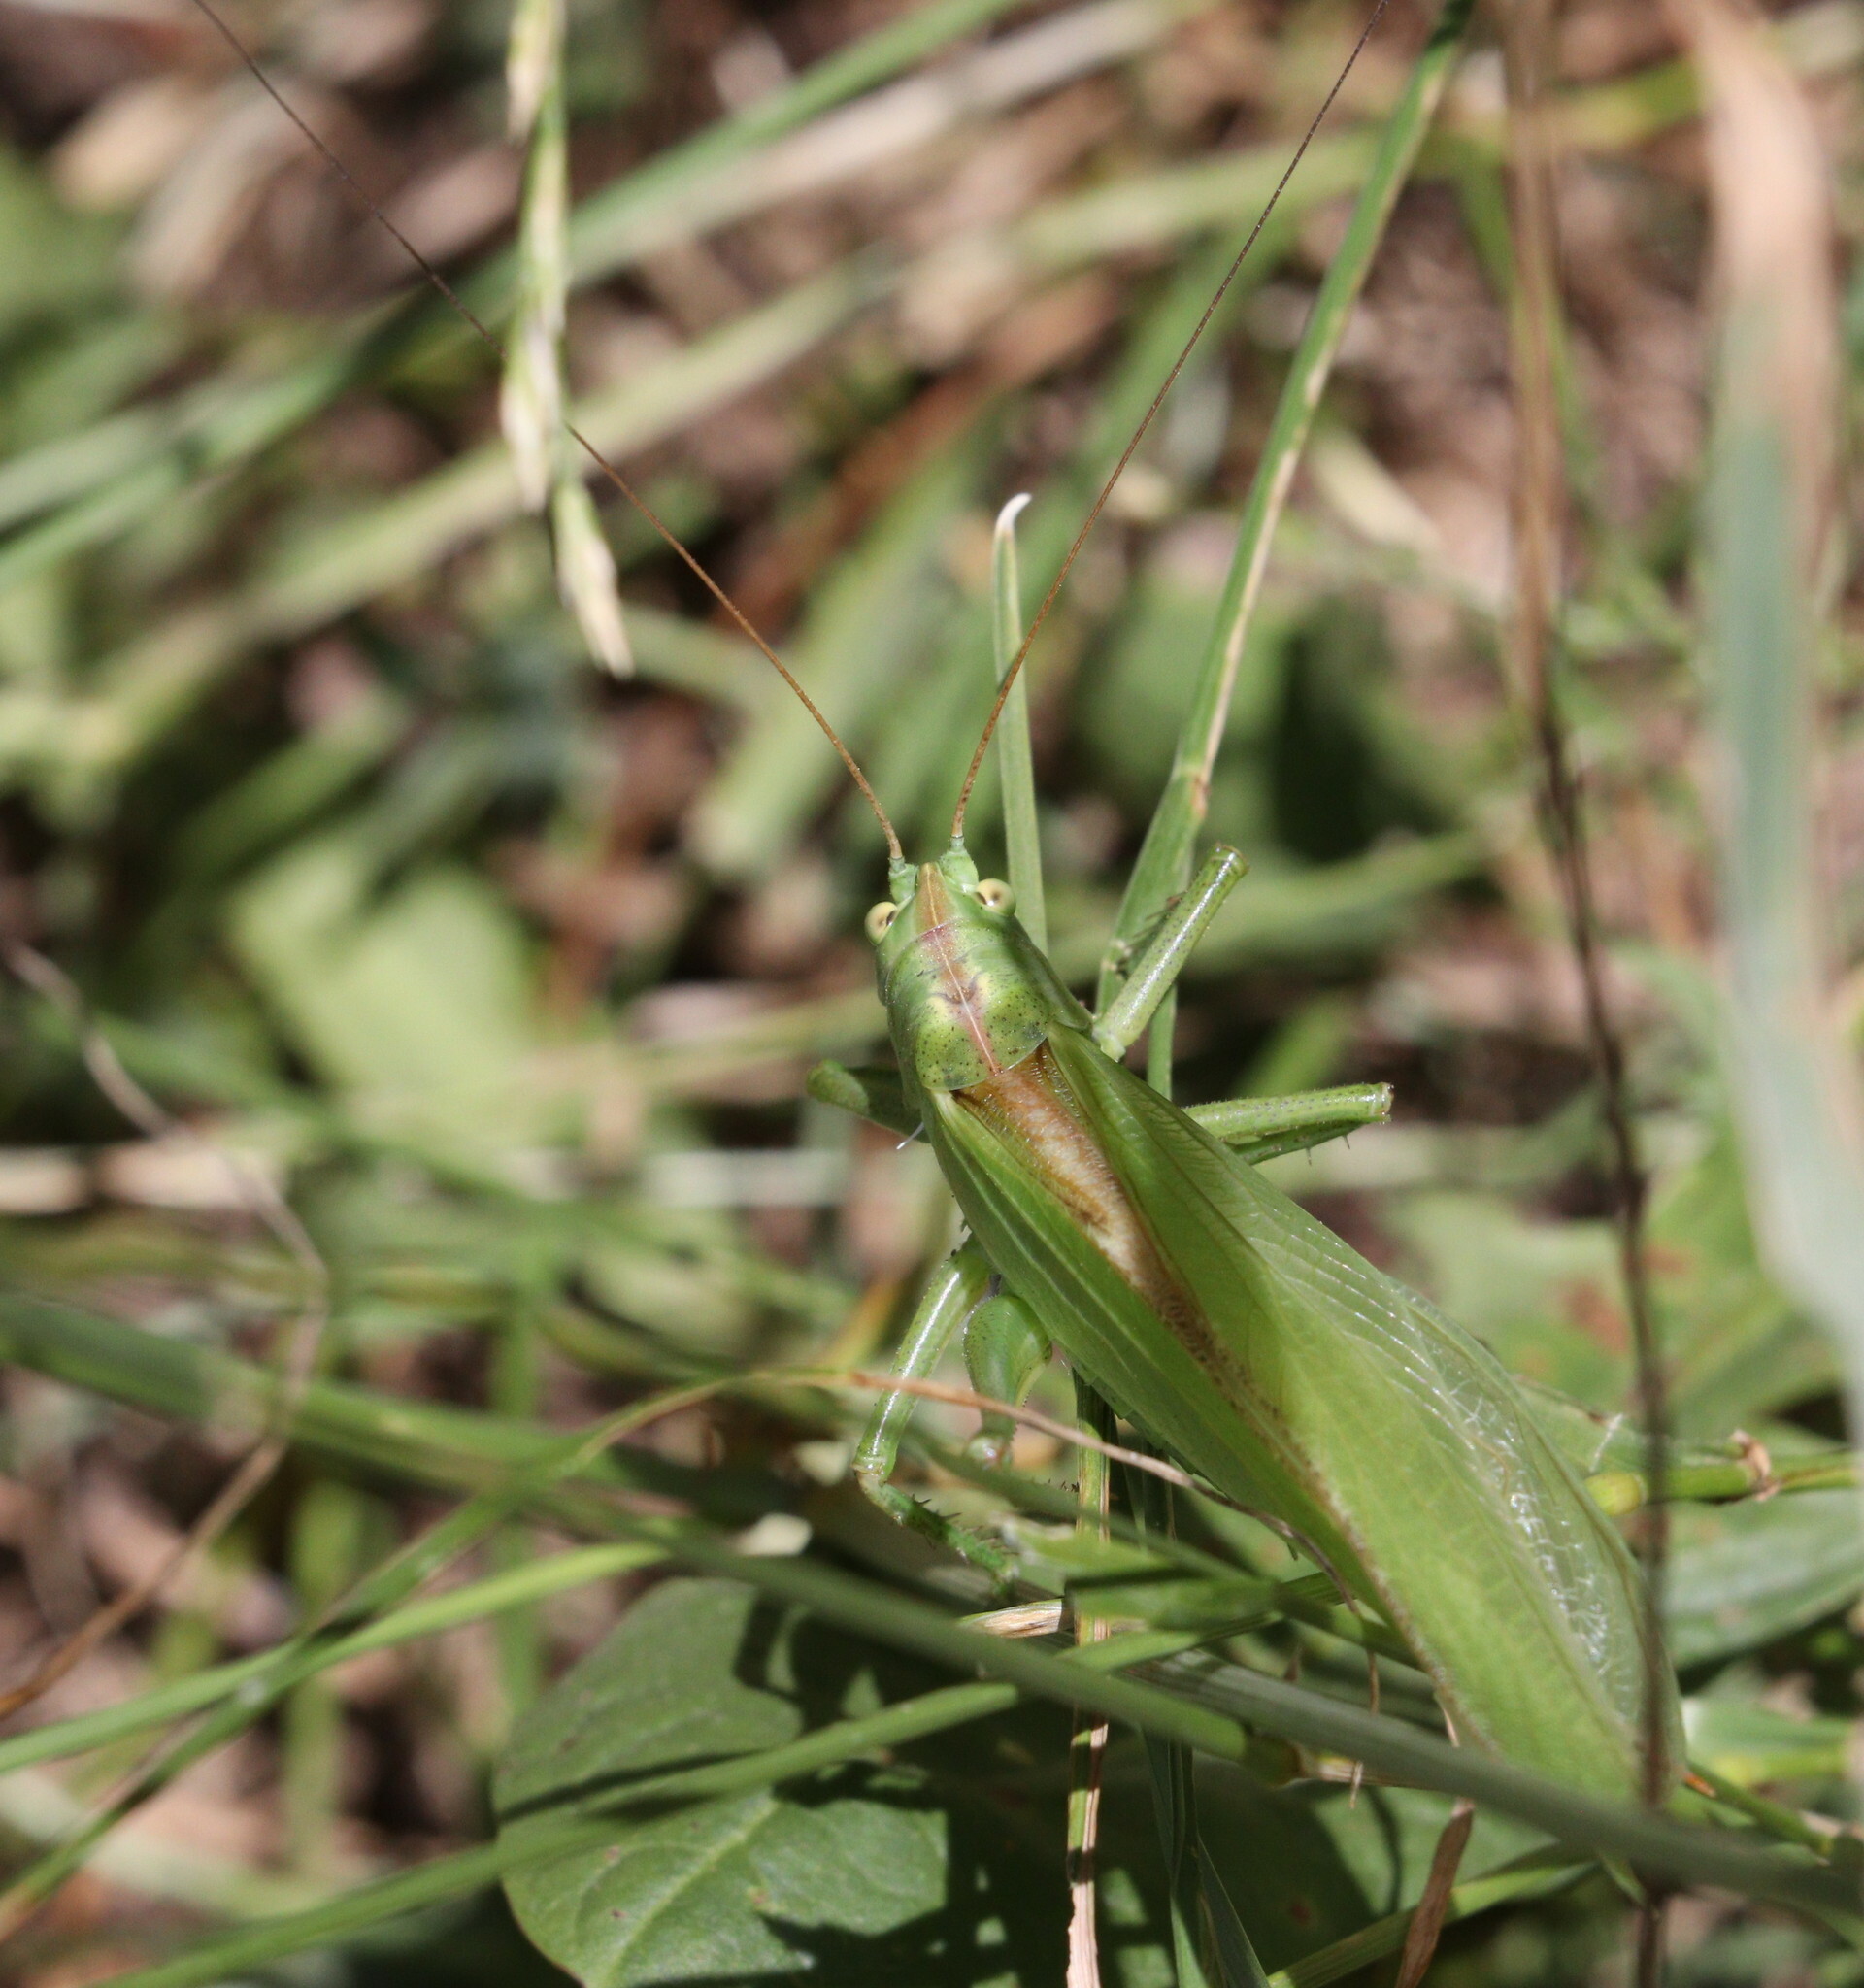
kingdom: Animalia
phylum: Arthropoda
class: Insecta
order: Orthoptera
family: Tettigoniidae
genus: Tettigonia
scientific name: Tettigonia viridissima
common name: Great green bush-cricket
